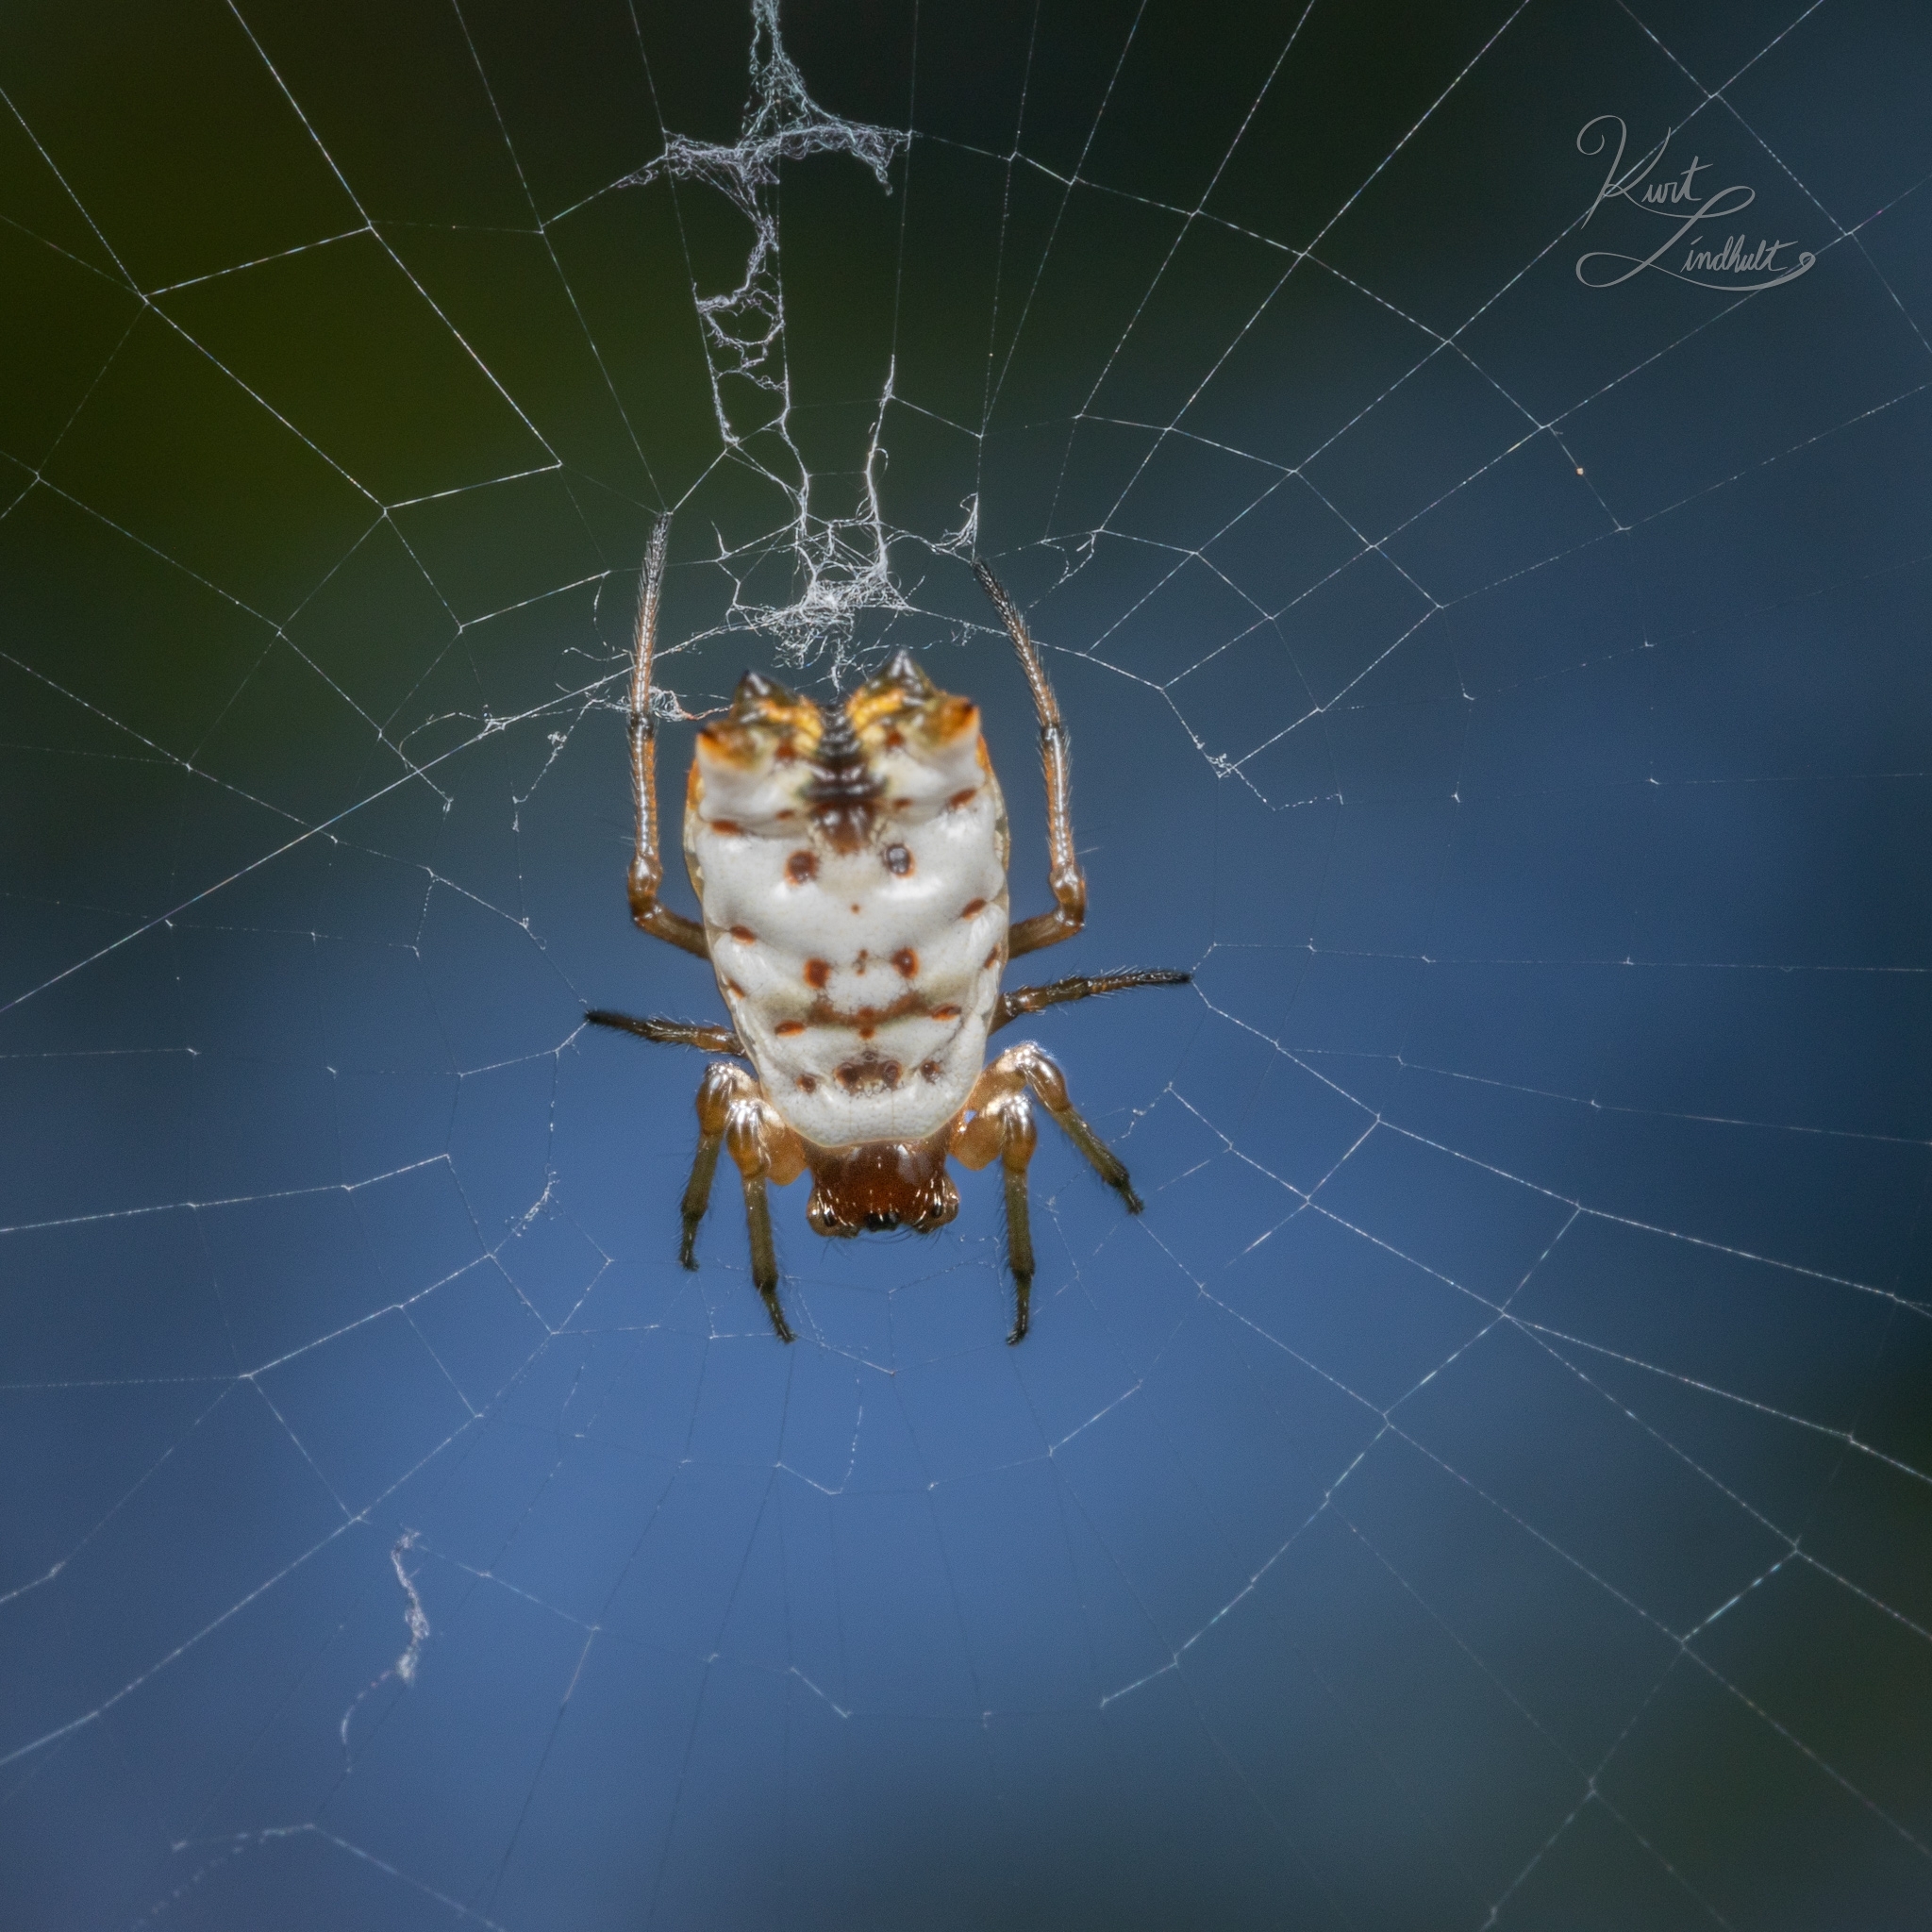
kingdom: Animalia
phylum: Arthropoda
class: Arachnida
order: Araneae
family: Araneidae
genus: Micrathena
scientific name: Micrathena mitrata
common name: Orb weavers
